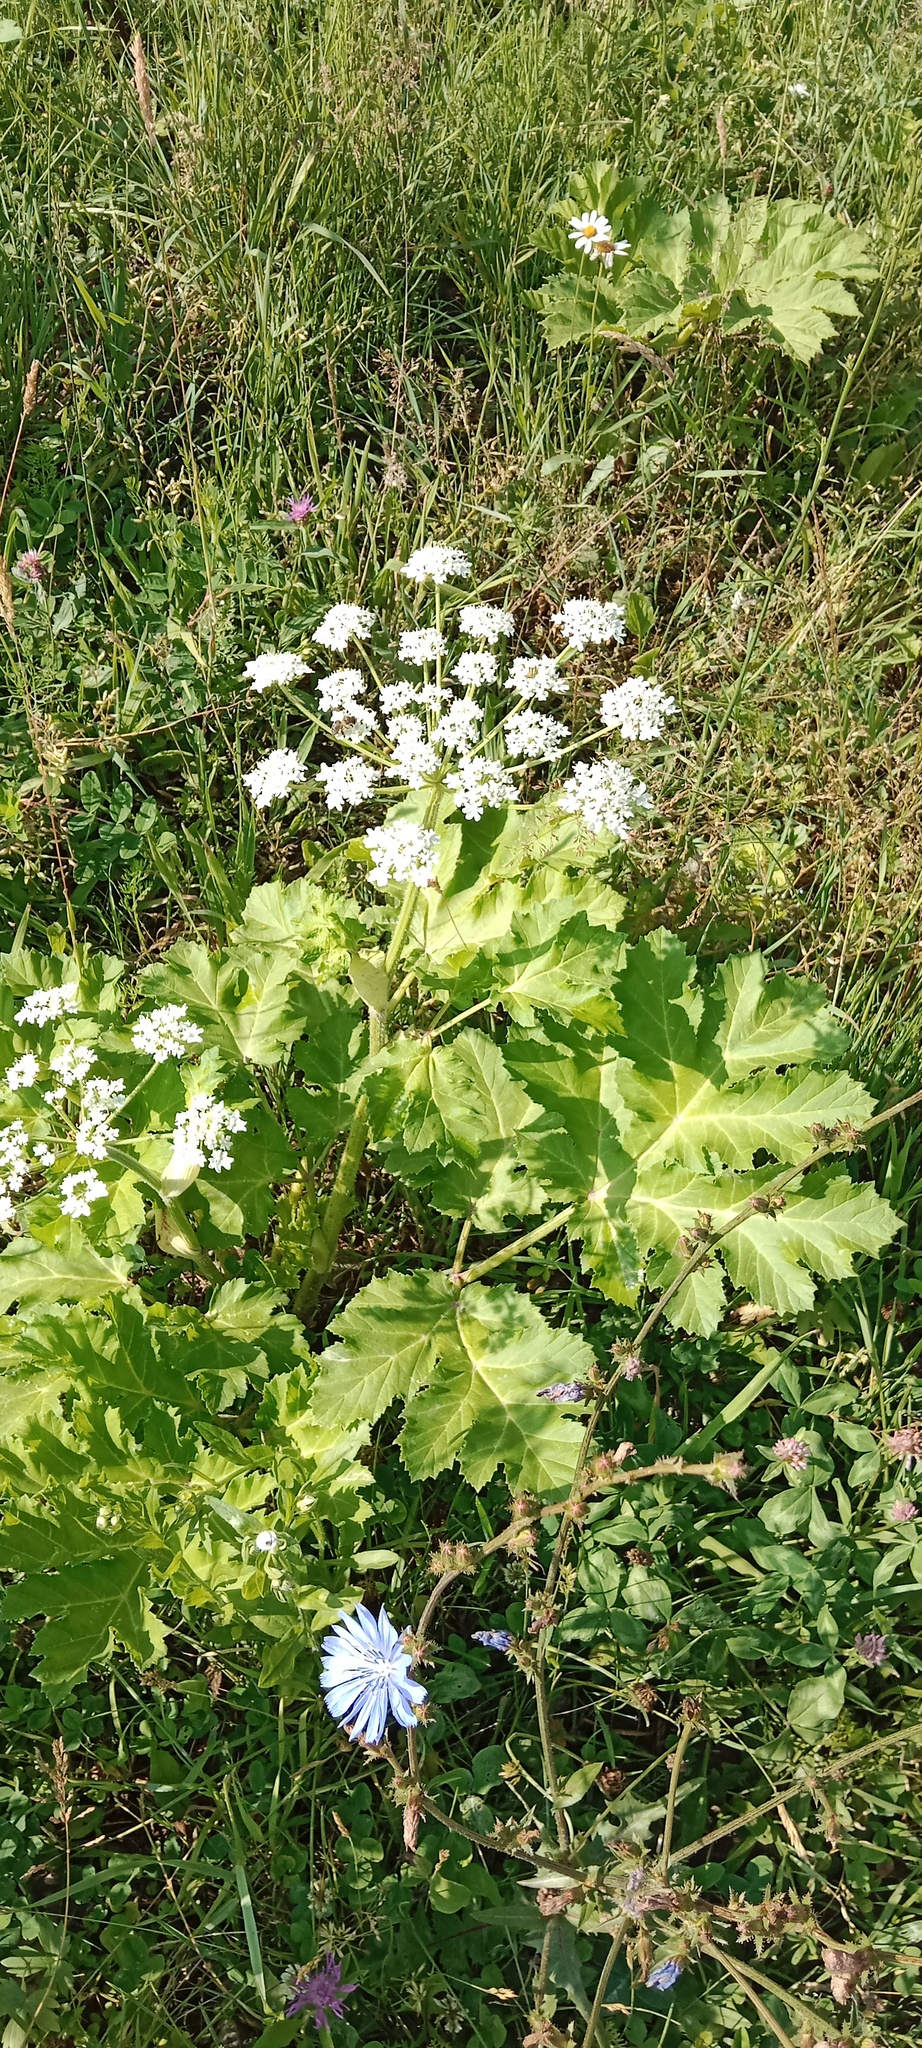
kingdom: Plantae
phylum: Tracheophyta
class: Magnoliopsida
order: Apiales
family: Apiaceae
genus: Heracleum
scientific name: Heracleum sosnowskyi
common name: Sosnowsky's hogweed
